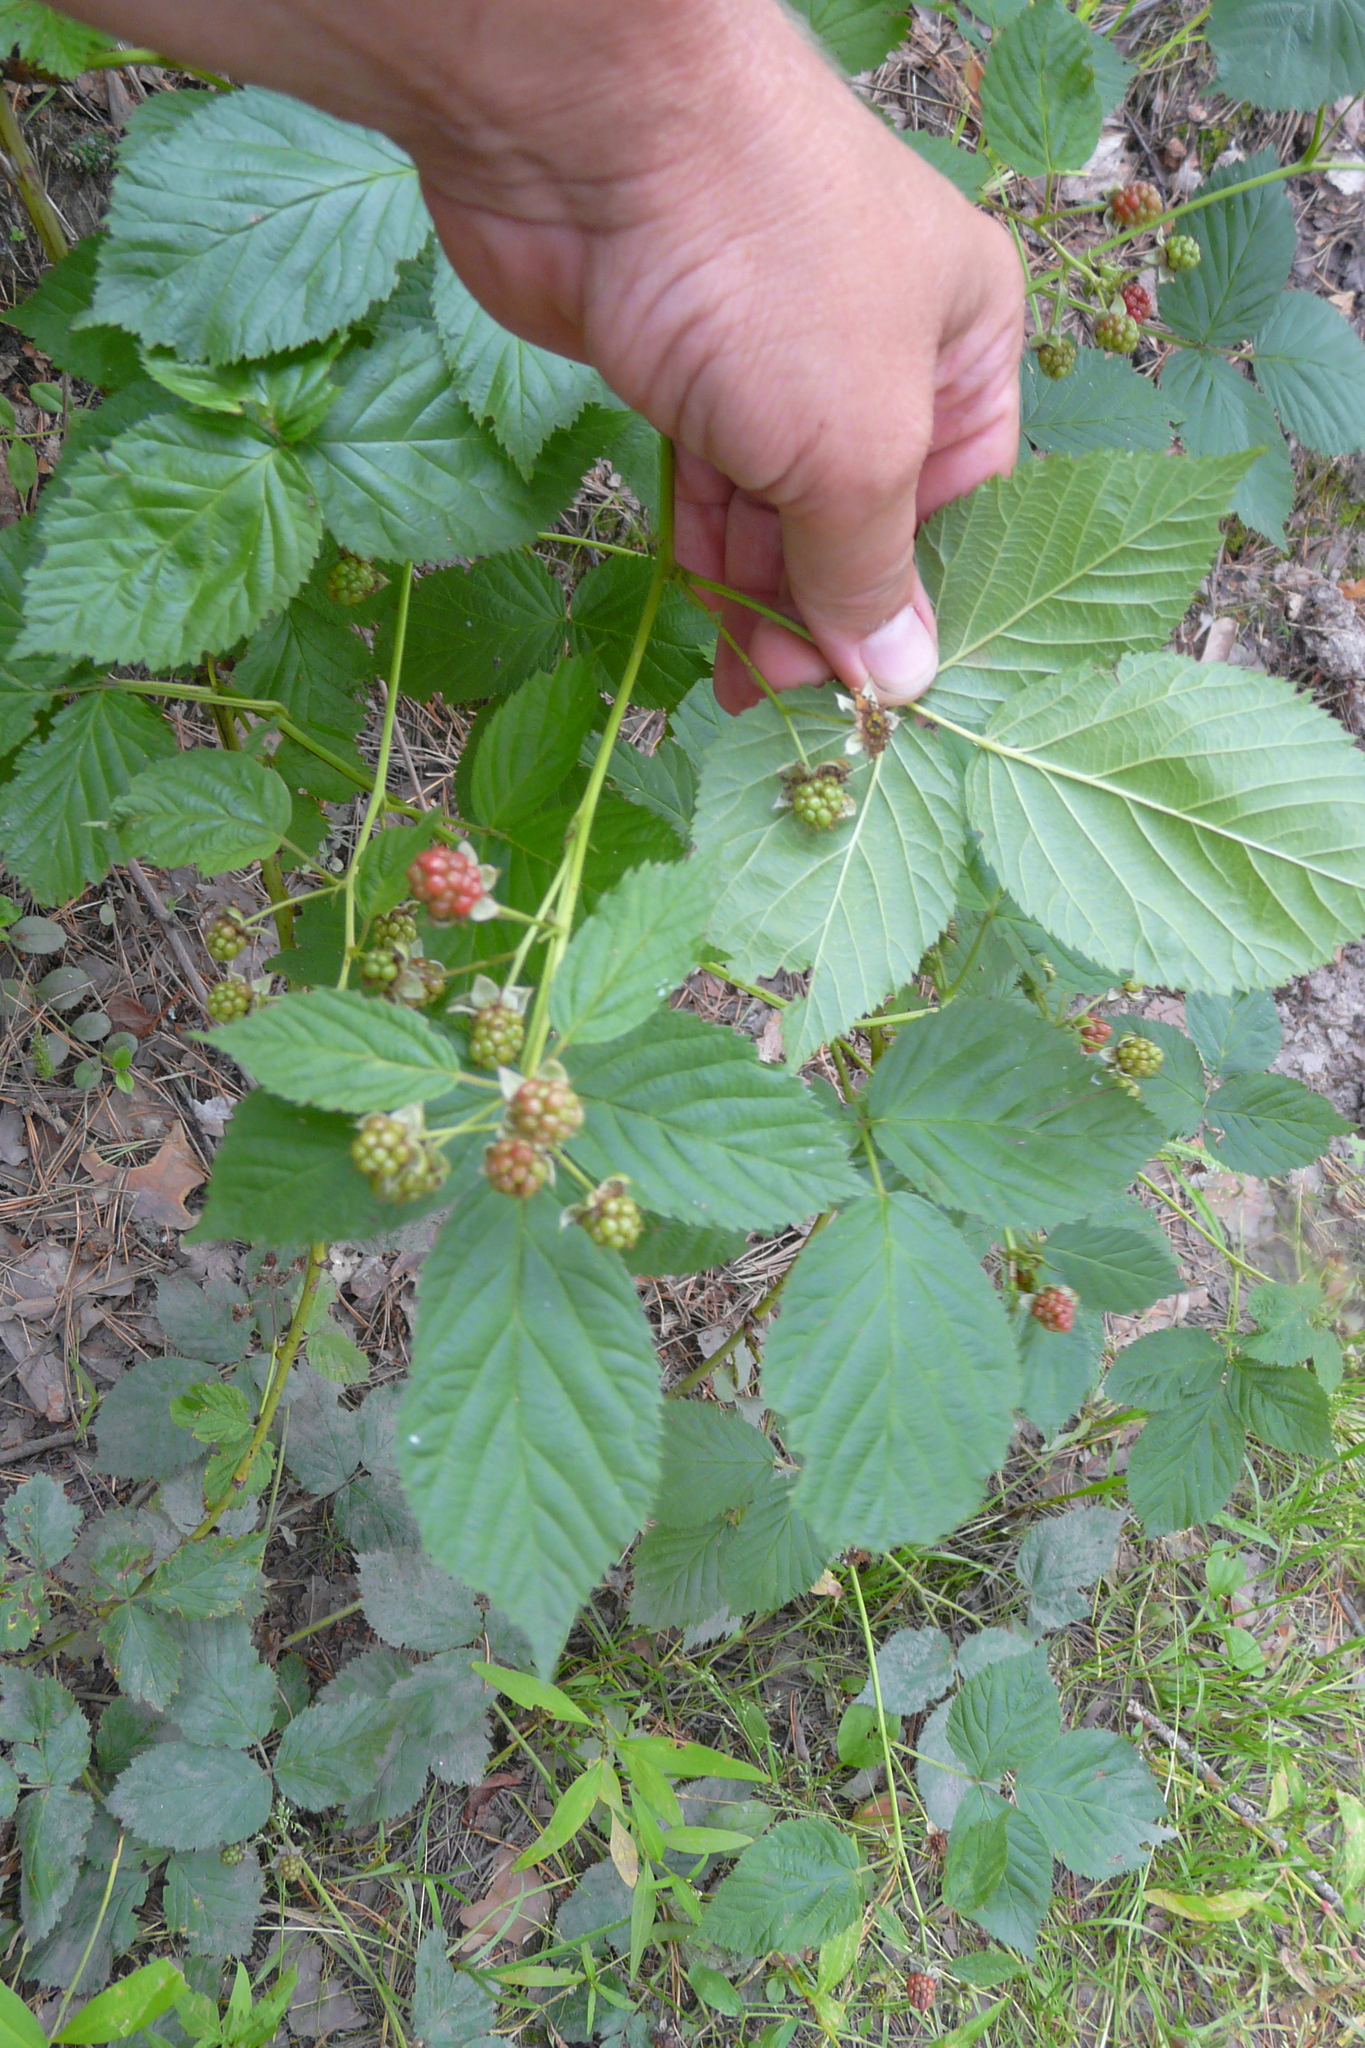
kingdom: Plantae
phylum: Tracheophyta
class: Magnoliopsida
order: Rosales
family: Rosaceae
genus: Rubus
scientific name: Rubus polonicus
